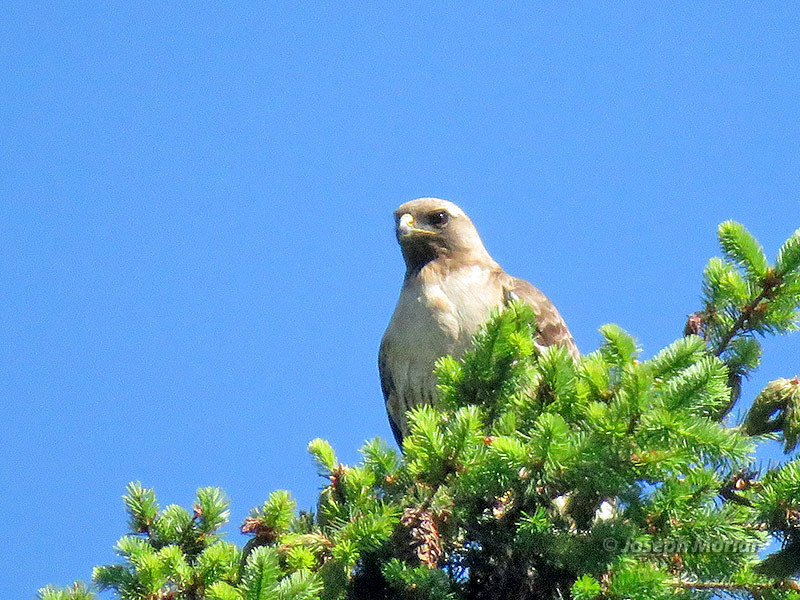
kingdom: Animalia
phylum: Chordata
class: Aves
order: Accipitriformes
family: Accipitridae
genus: Buteo
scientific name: Buteo jamaicensis
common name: Red-tailed hawk
